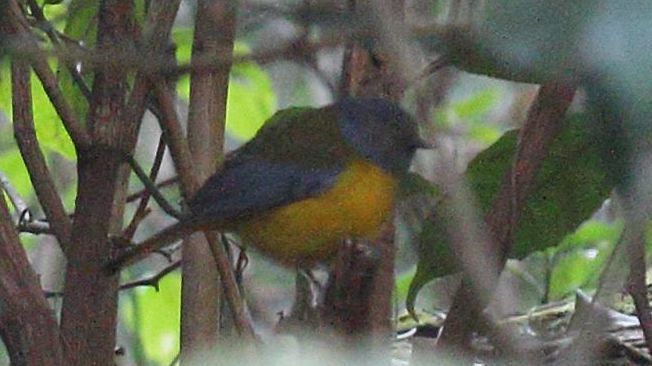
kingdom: Animalia
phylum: Chordata
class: Aves
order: Passeriformes
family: Muscicapidae
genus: Pogonocichla
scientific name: Pogonocichla stellata
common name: White-starred robin
